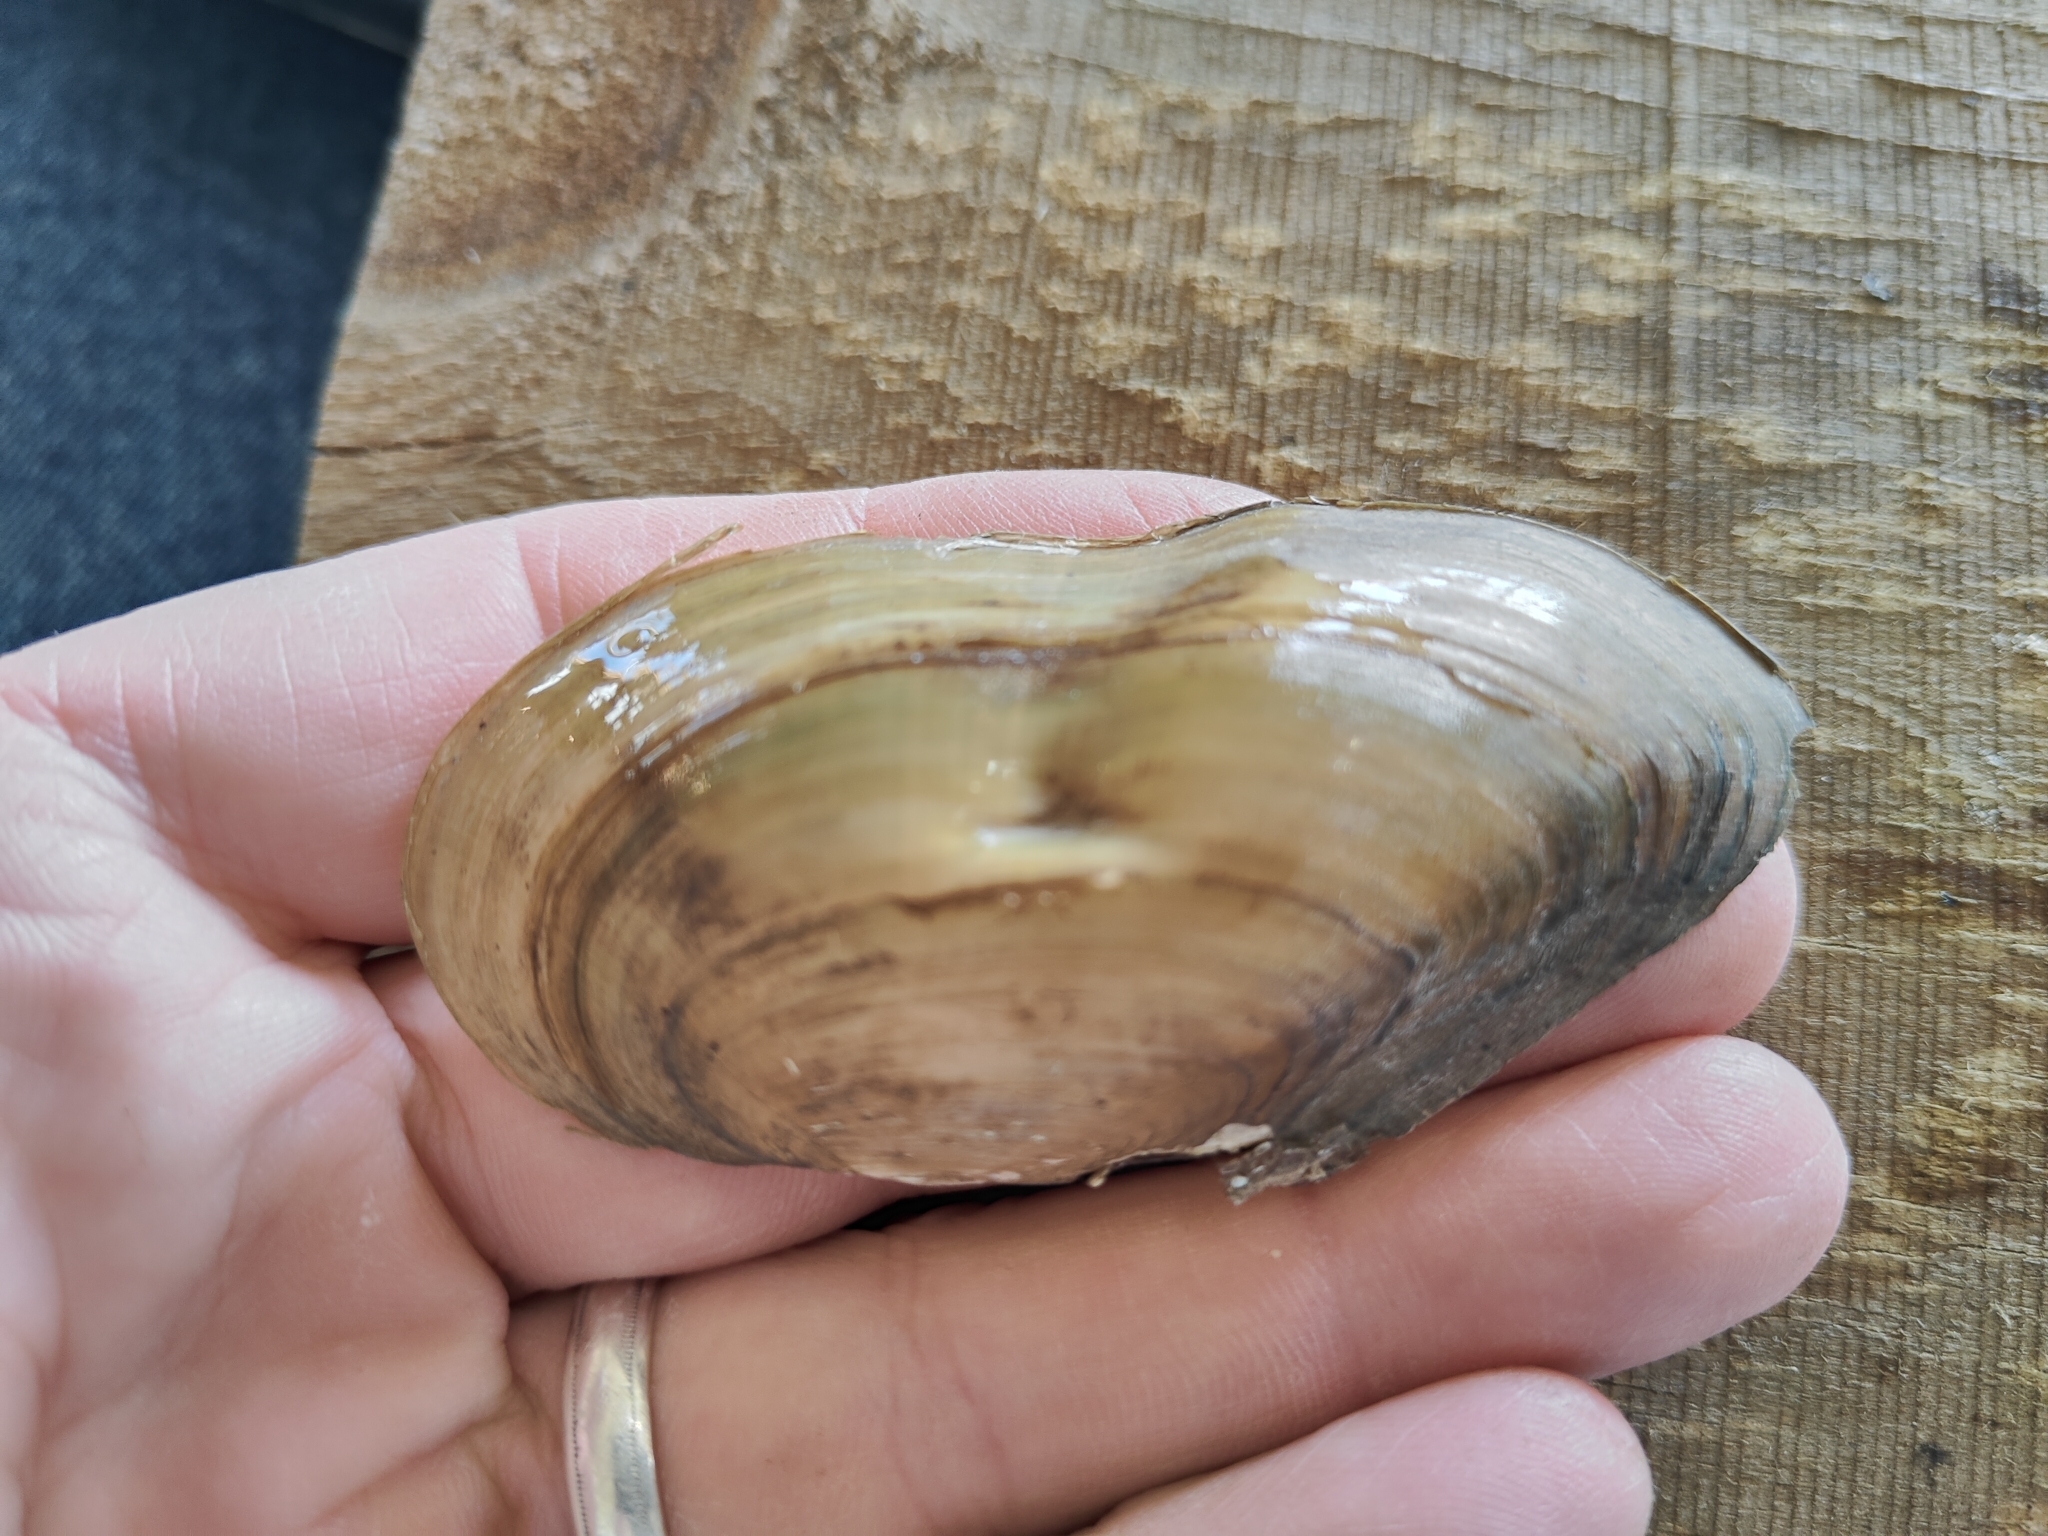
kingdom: Animalia
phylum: Mollusca
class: Bivalvia
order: Unionida
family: Unionidae
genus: Utterbackia
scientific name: Utterbackia imbecillis
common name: Paper pondshell
